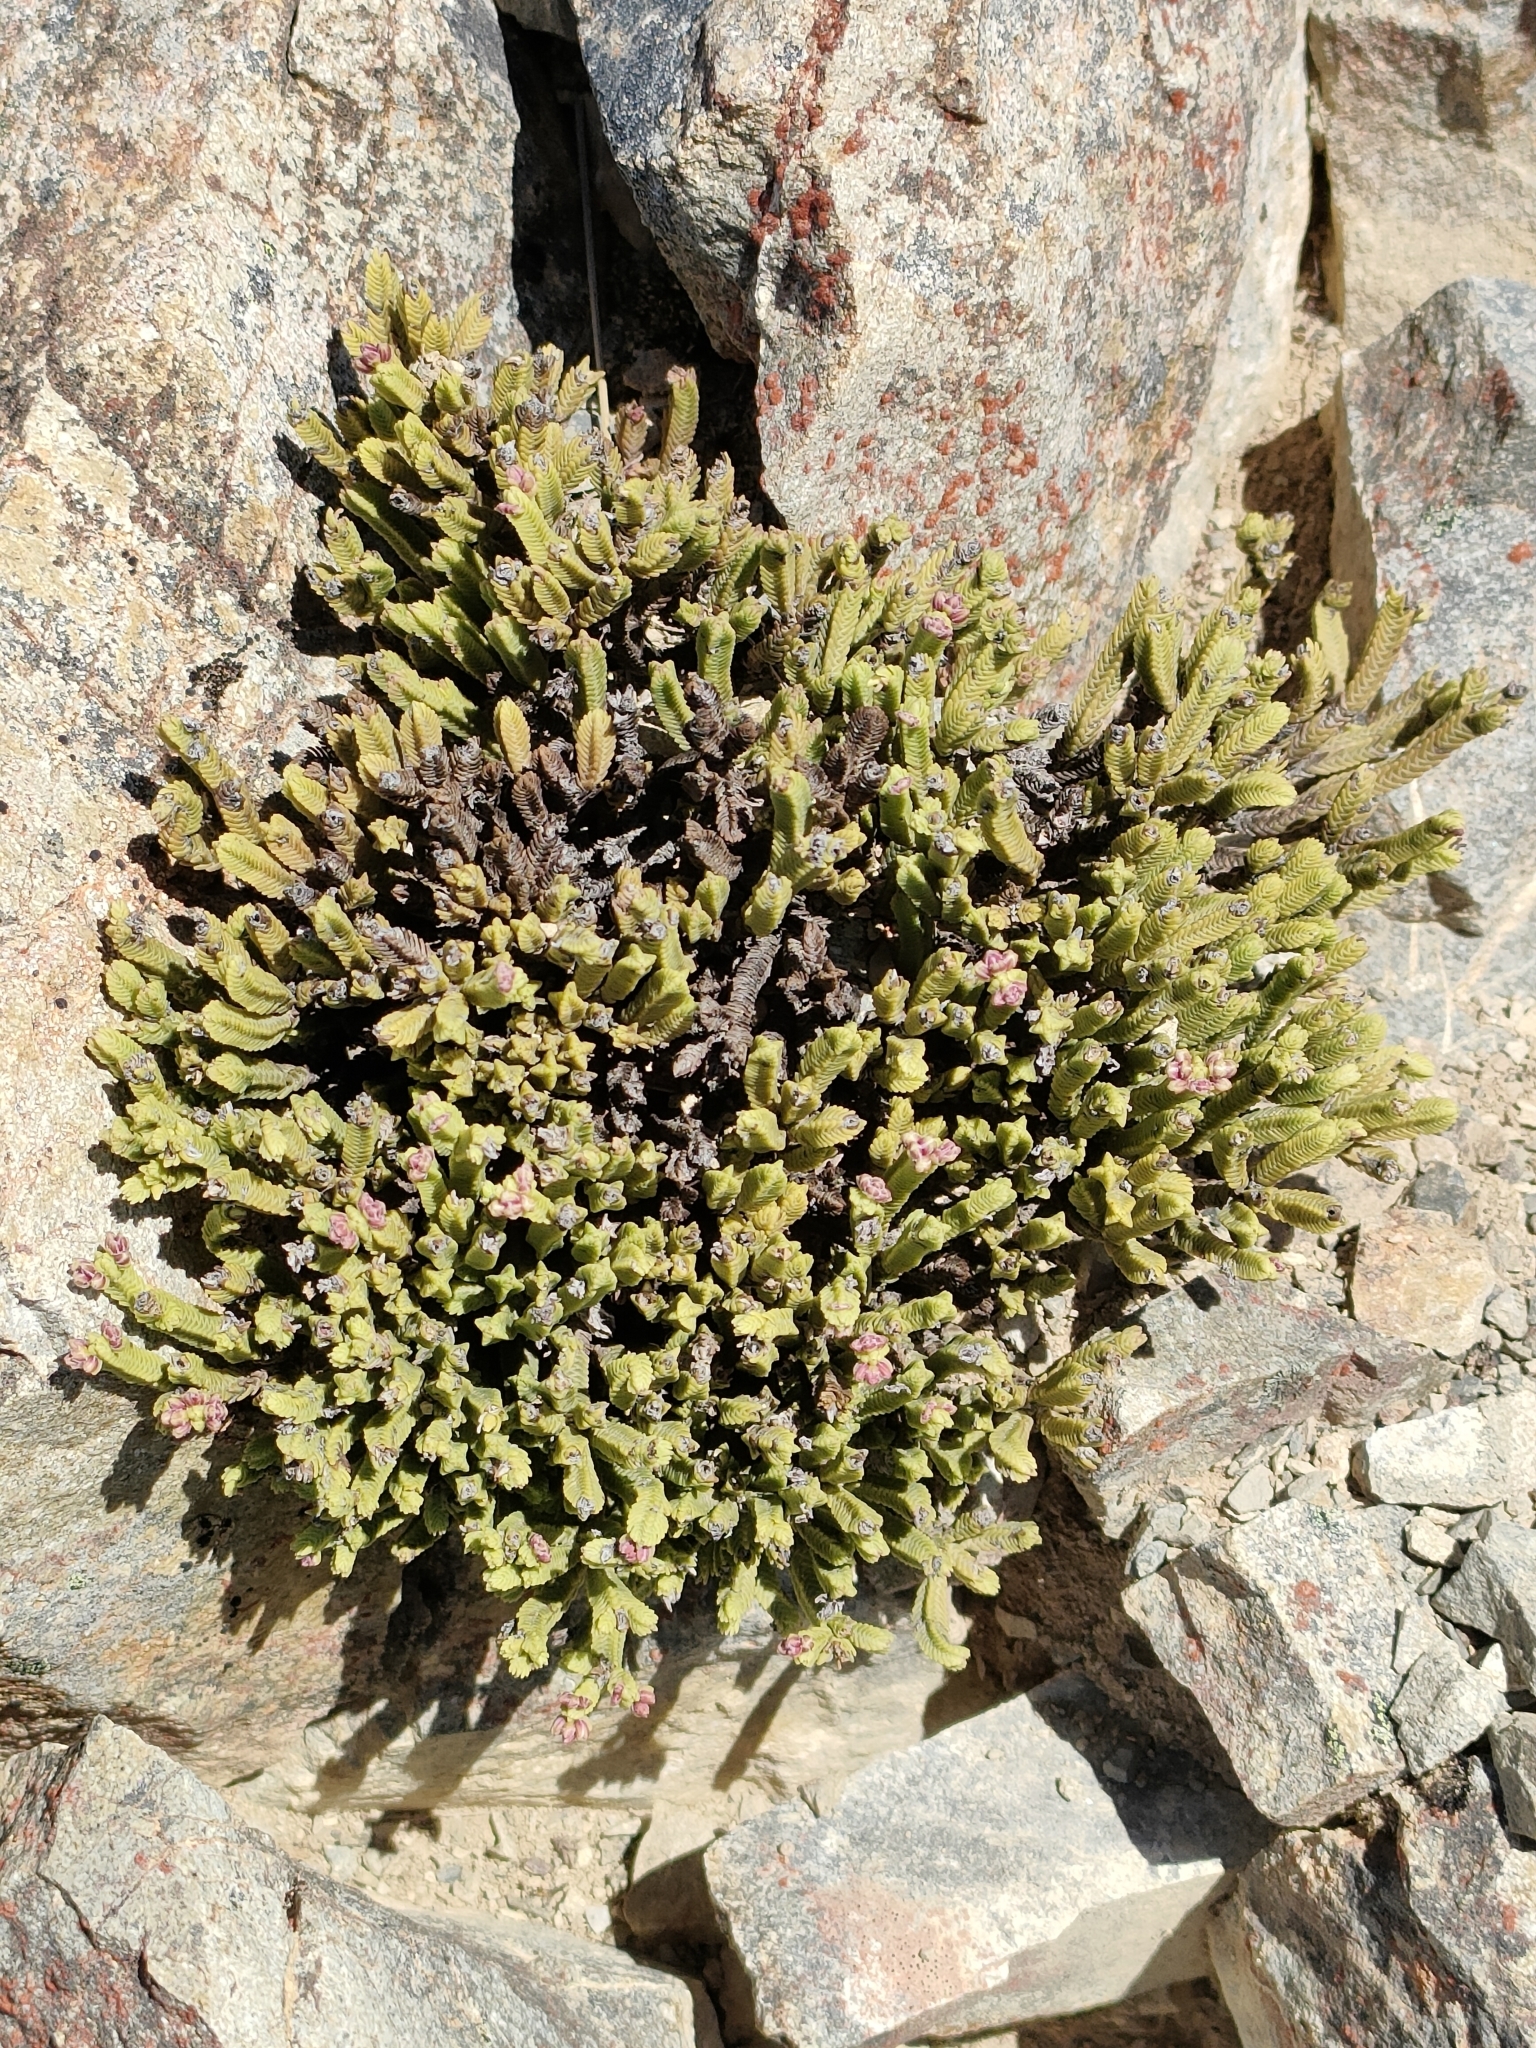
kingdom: Plantae
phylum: Tracheophyta
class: Magnoliopsida
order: Lamiales
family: Plantaginaceae
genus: Veronica
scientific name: Veronica tetrasticha
